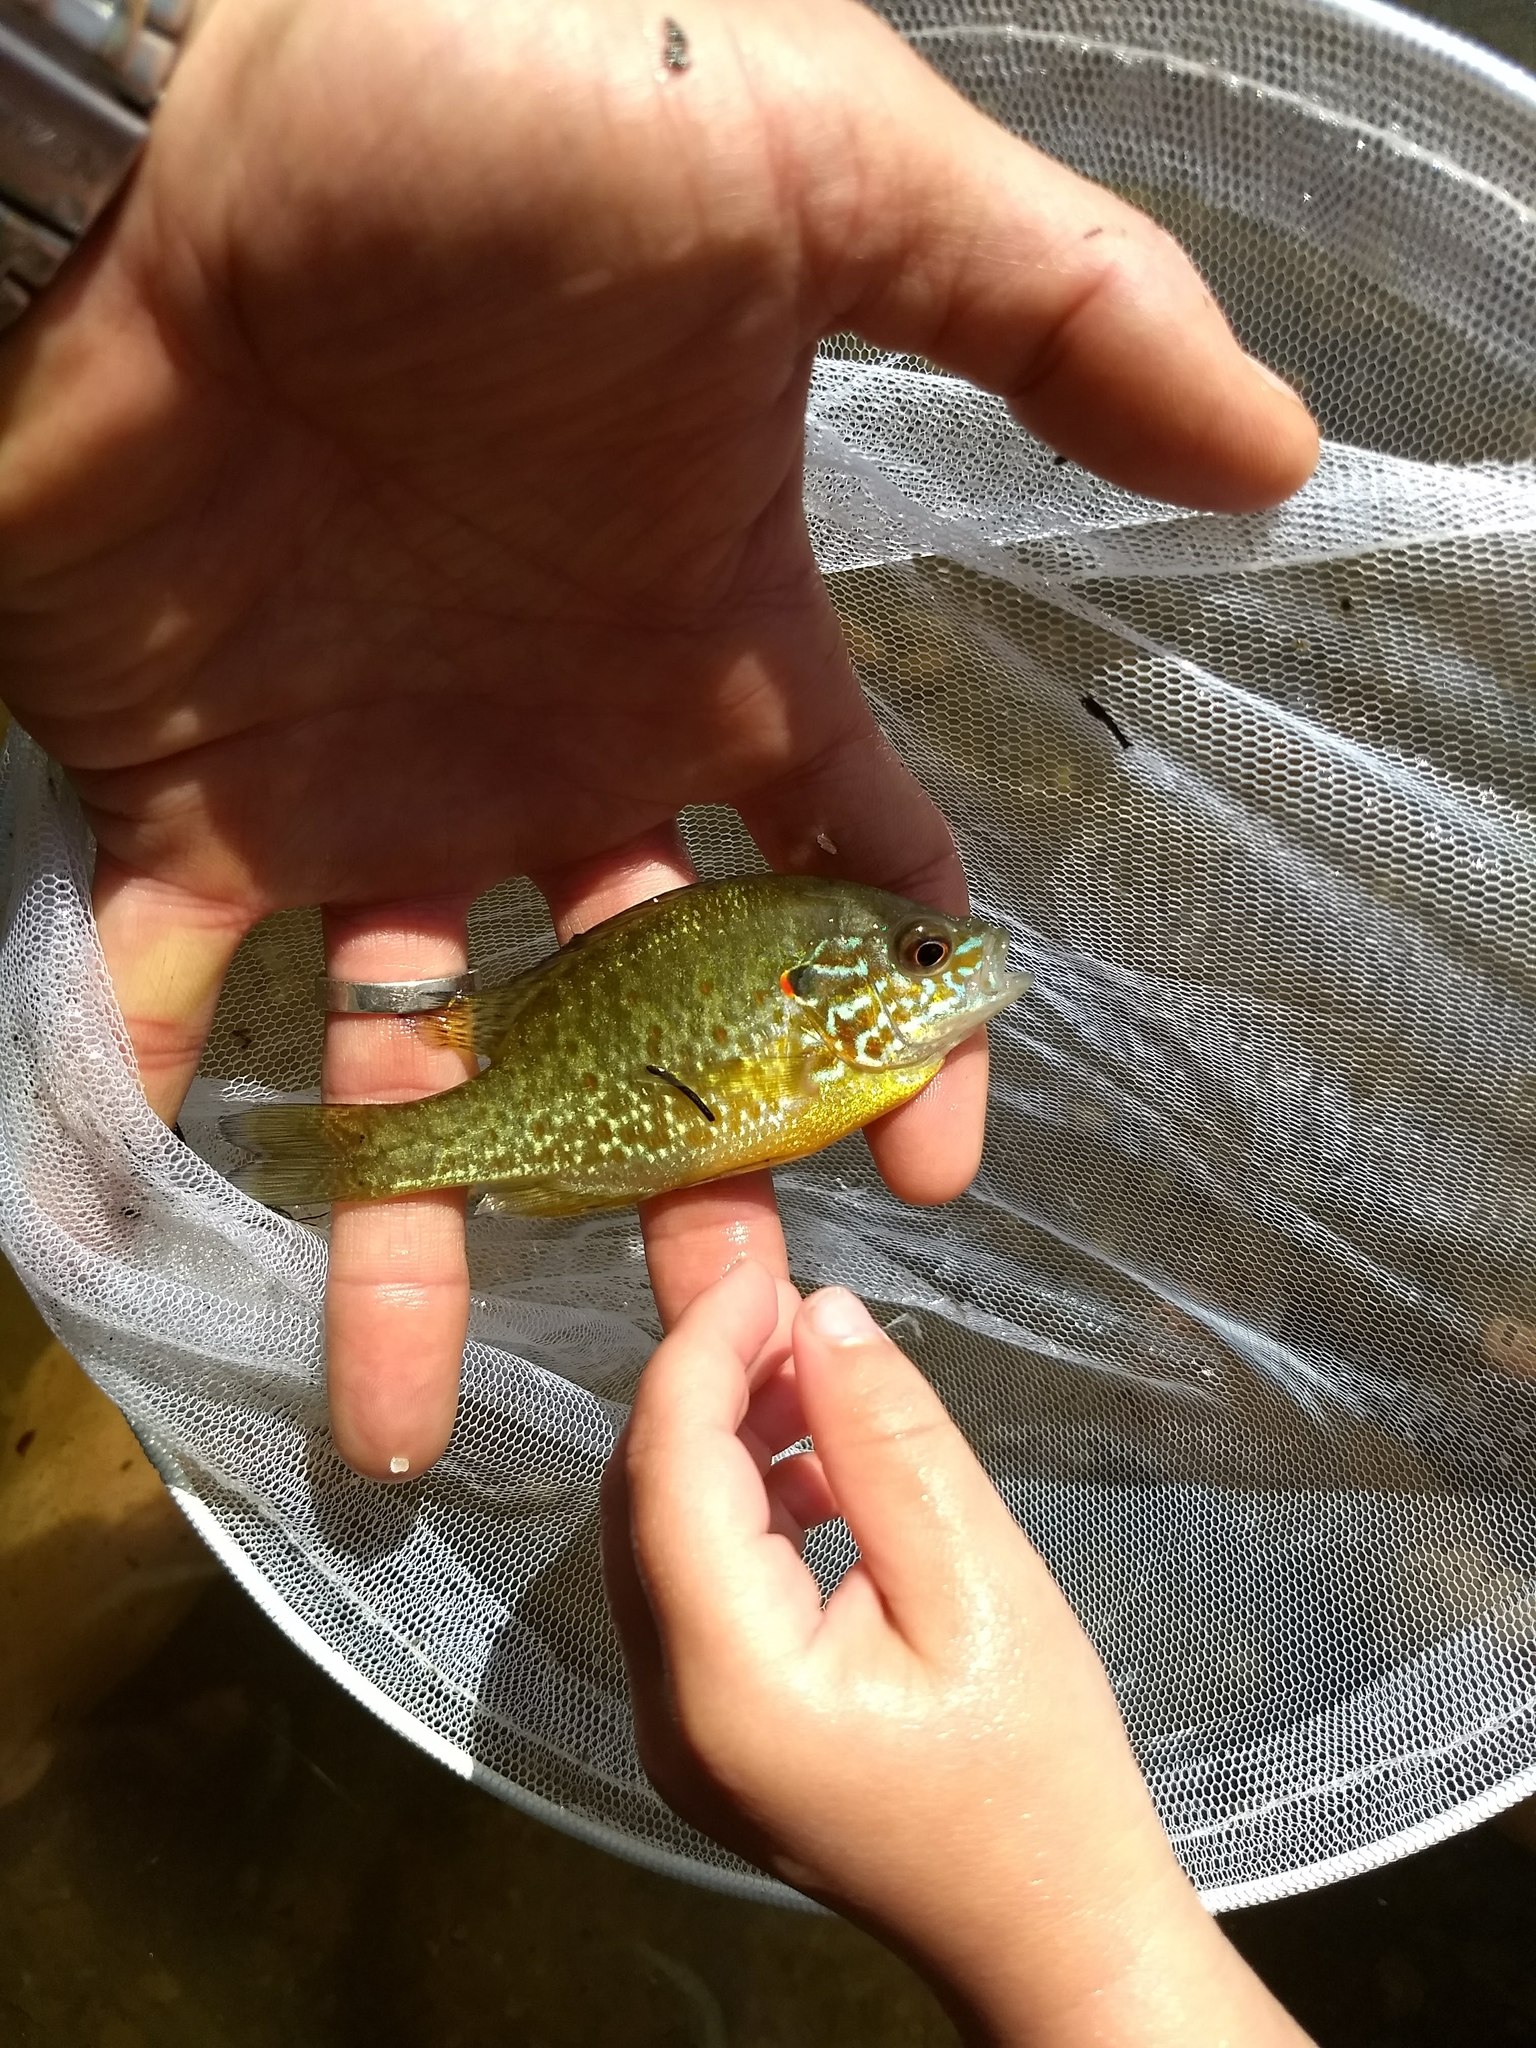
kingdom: Animalia
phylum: Chordata
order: Perciformes
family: Centrarchidae
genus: Lepomis
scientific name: Lepomis gibbosus
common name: Pumpkinseed
